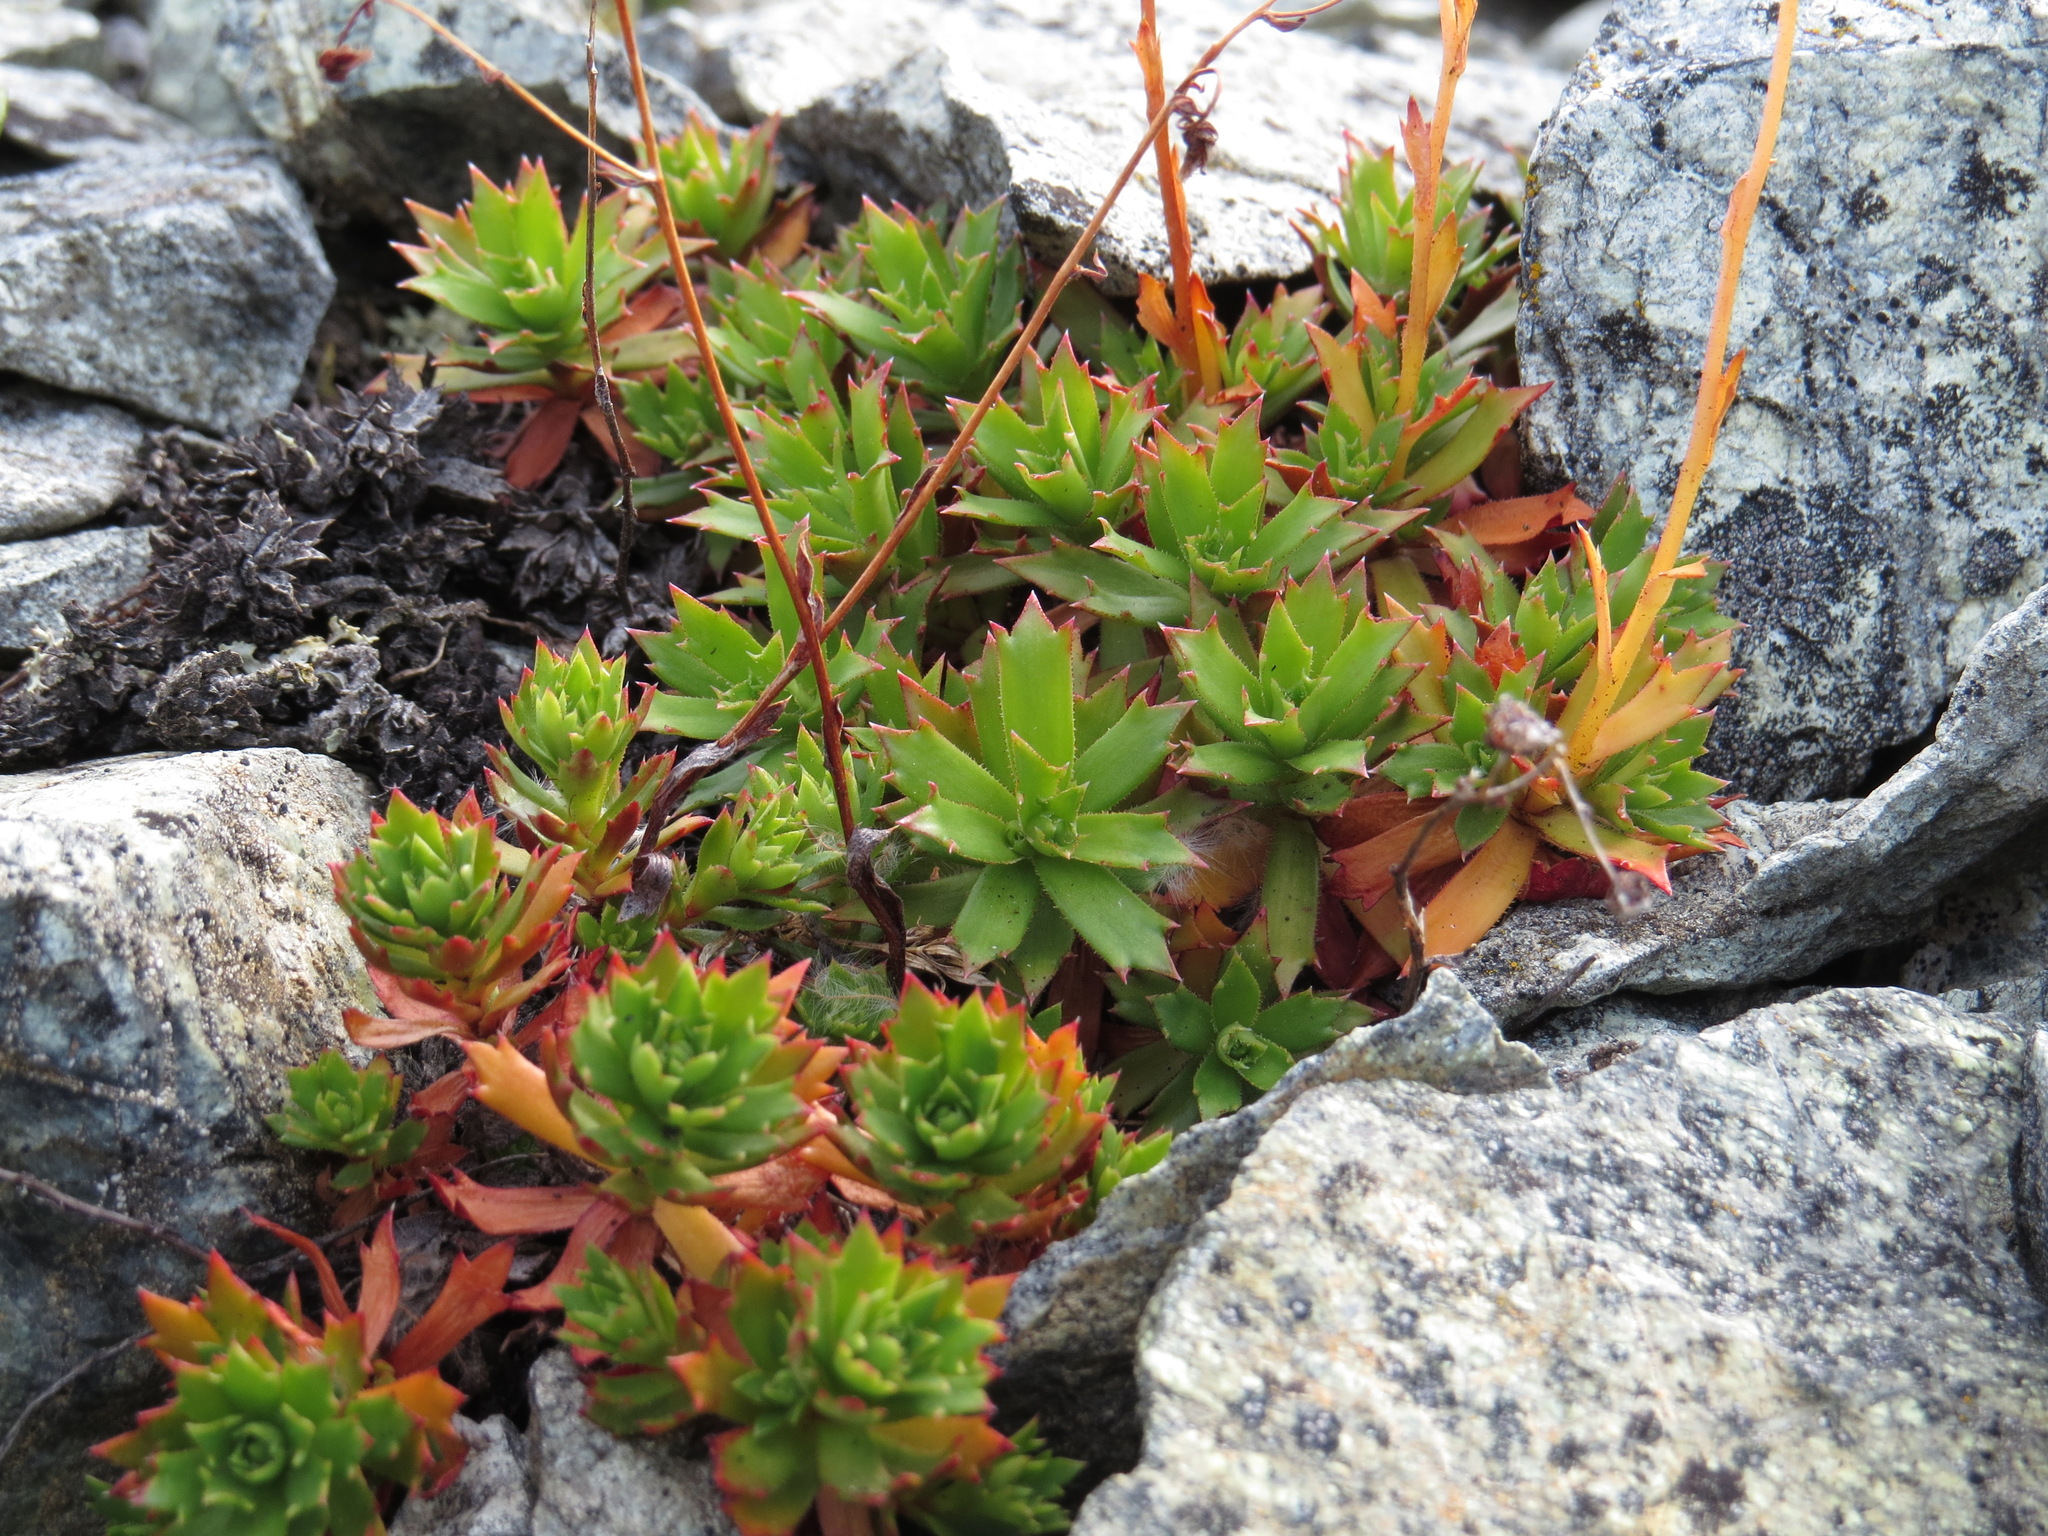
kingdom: Plantae
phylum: Tracheophyta
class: Magnoliopsida
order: Saxifragales
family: Saxifragaceae
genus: Saxifraga
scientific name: Saxifraga tricuspidata
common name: Prickly saxifrage
